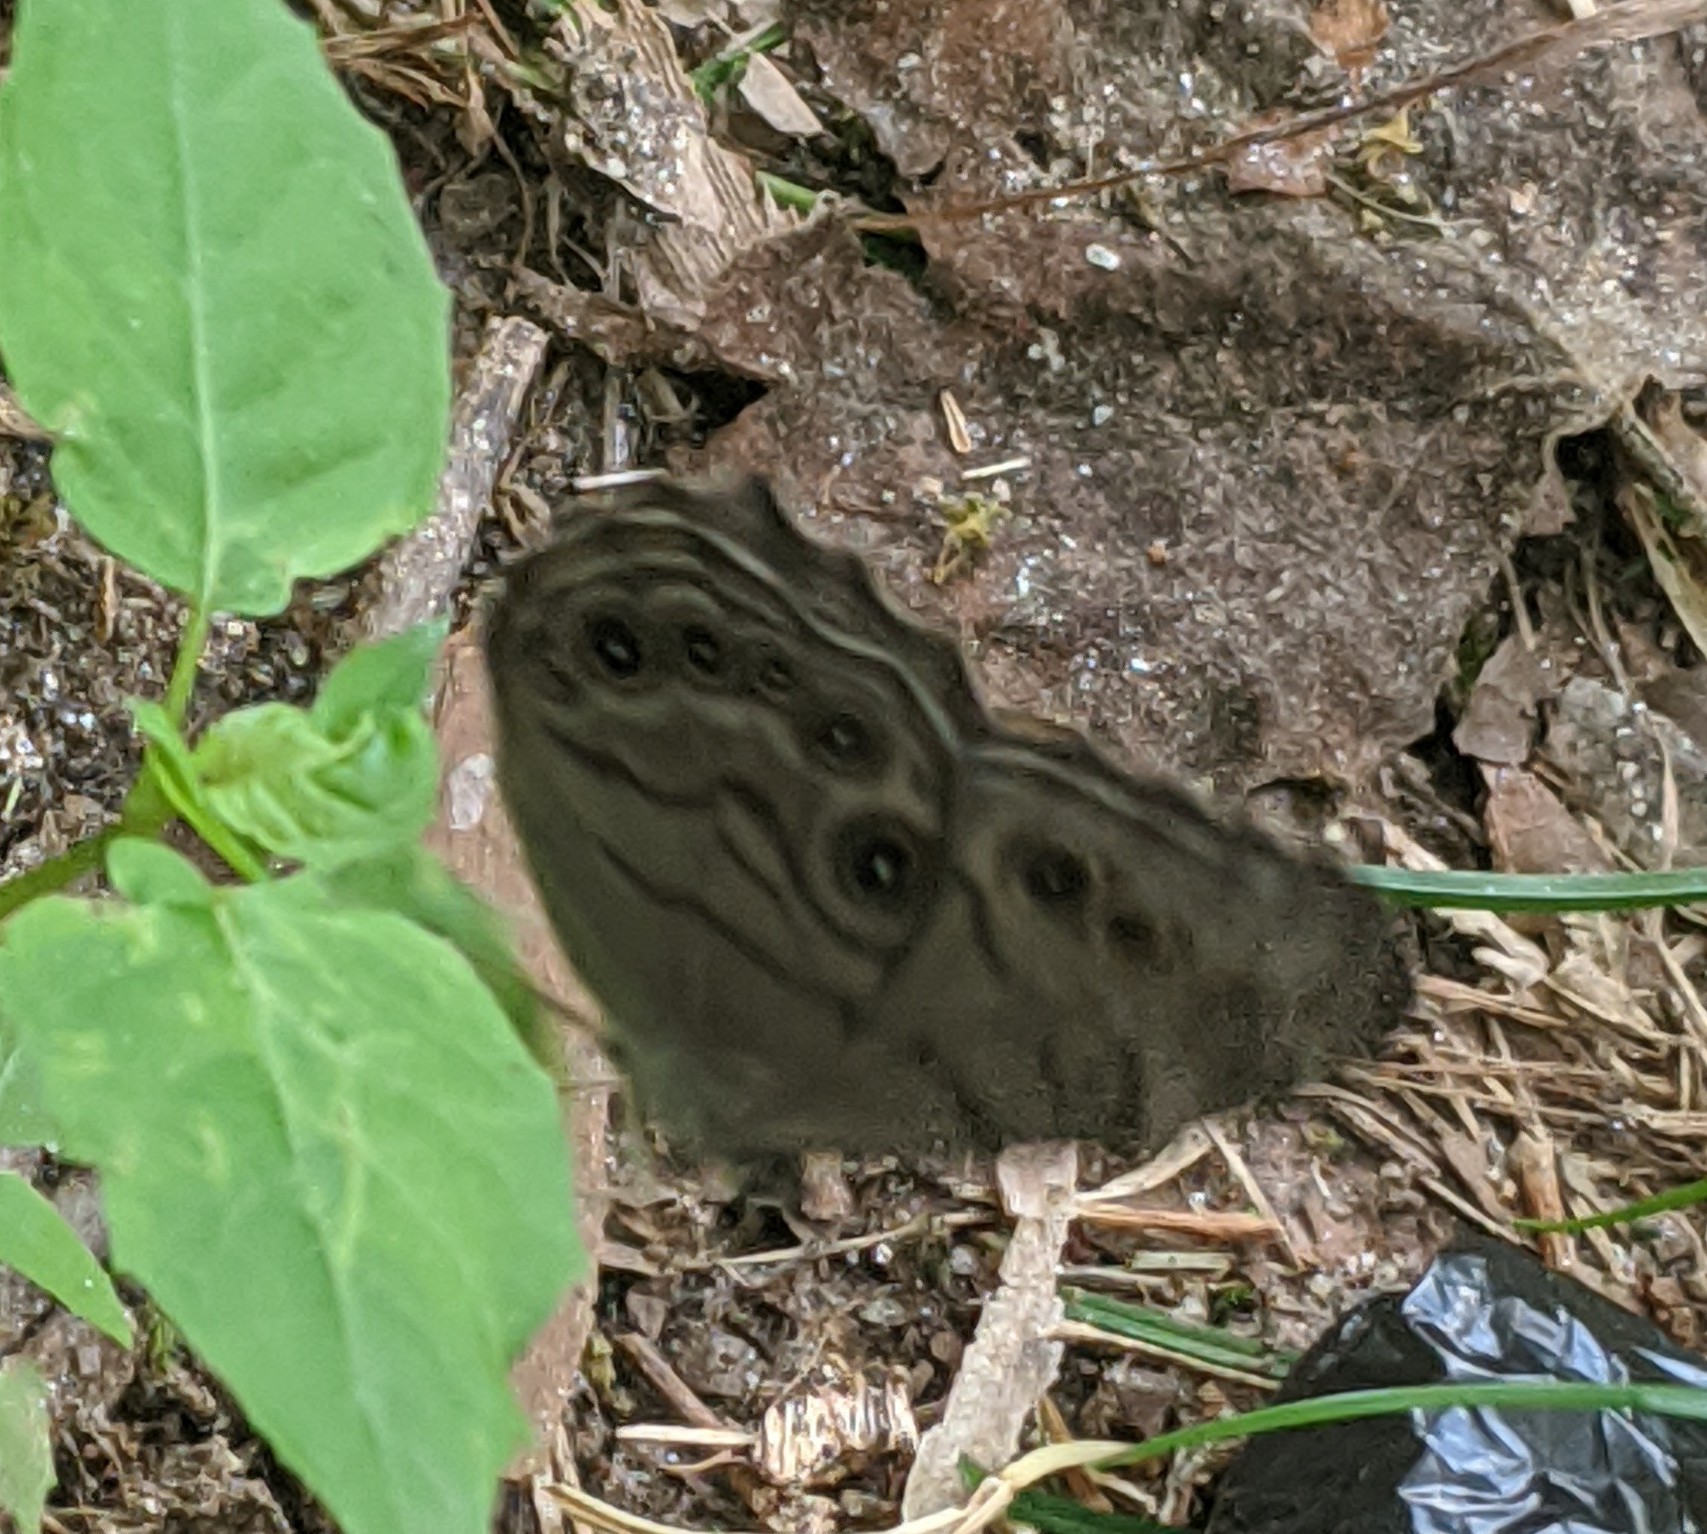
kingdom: Animalia
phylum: Arthropoda
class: Insecta
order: Lepidoptera
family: Nymphalidae
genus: Lethe
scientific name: Lethe anthedon
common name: Northern pearly-eye
